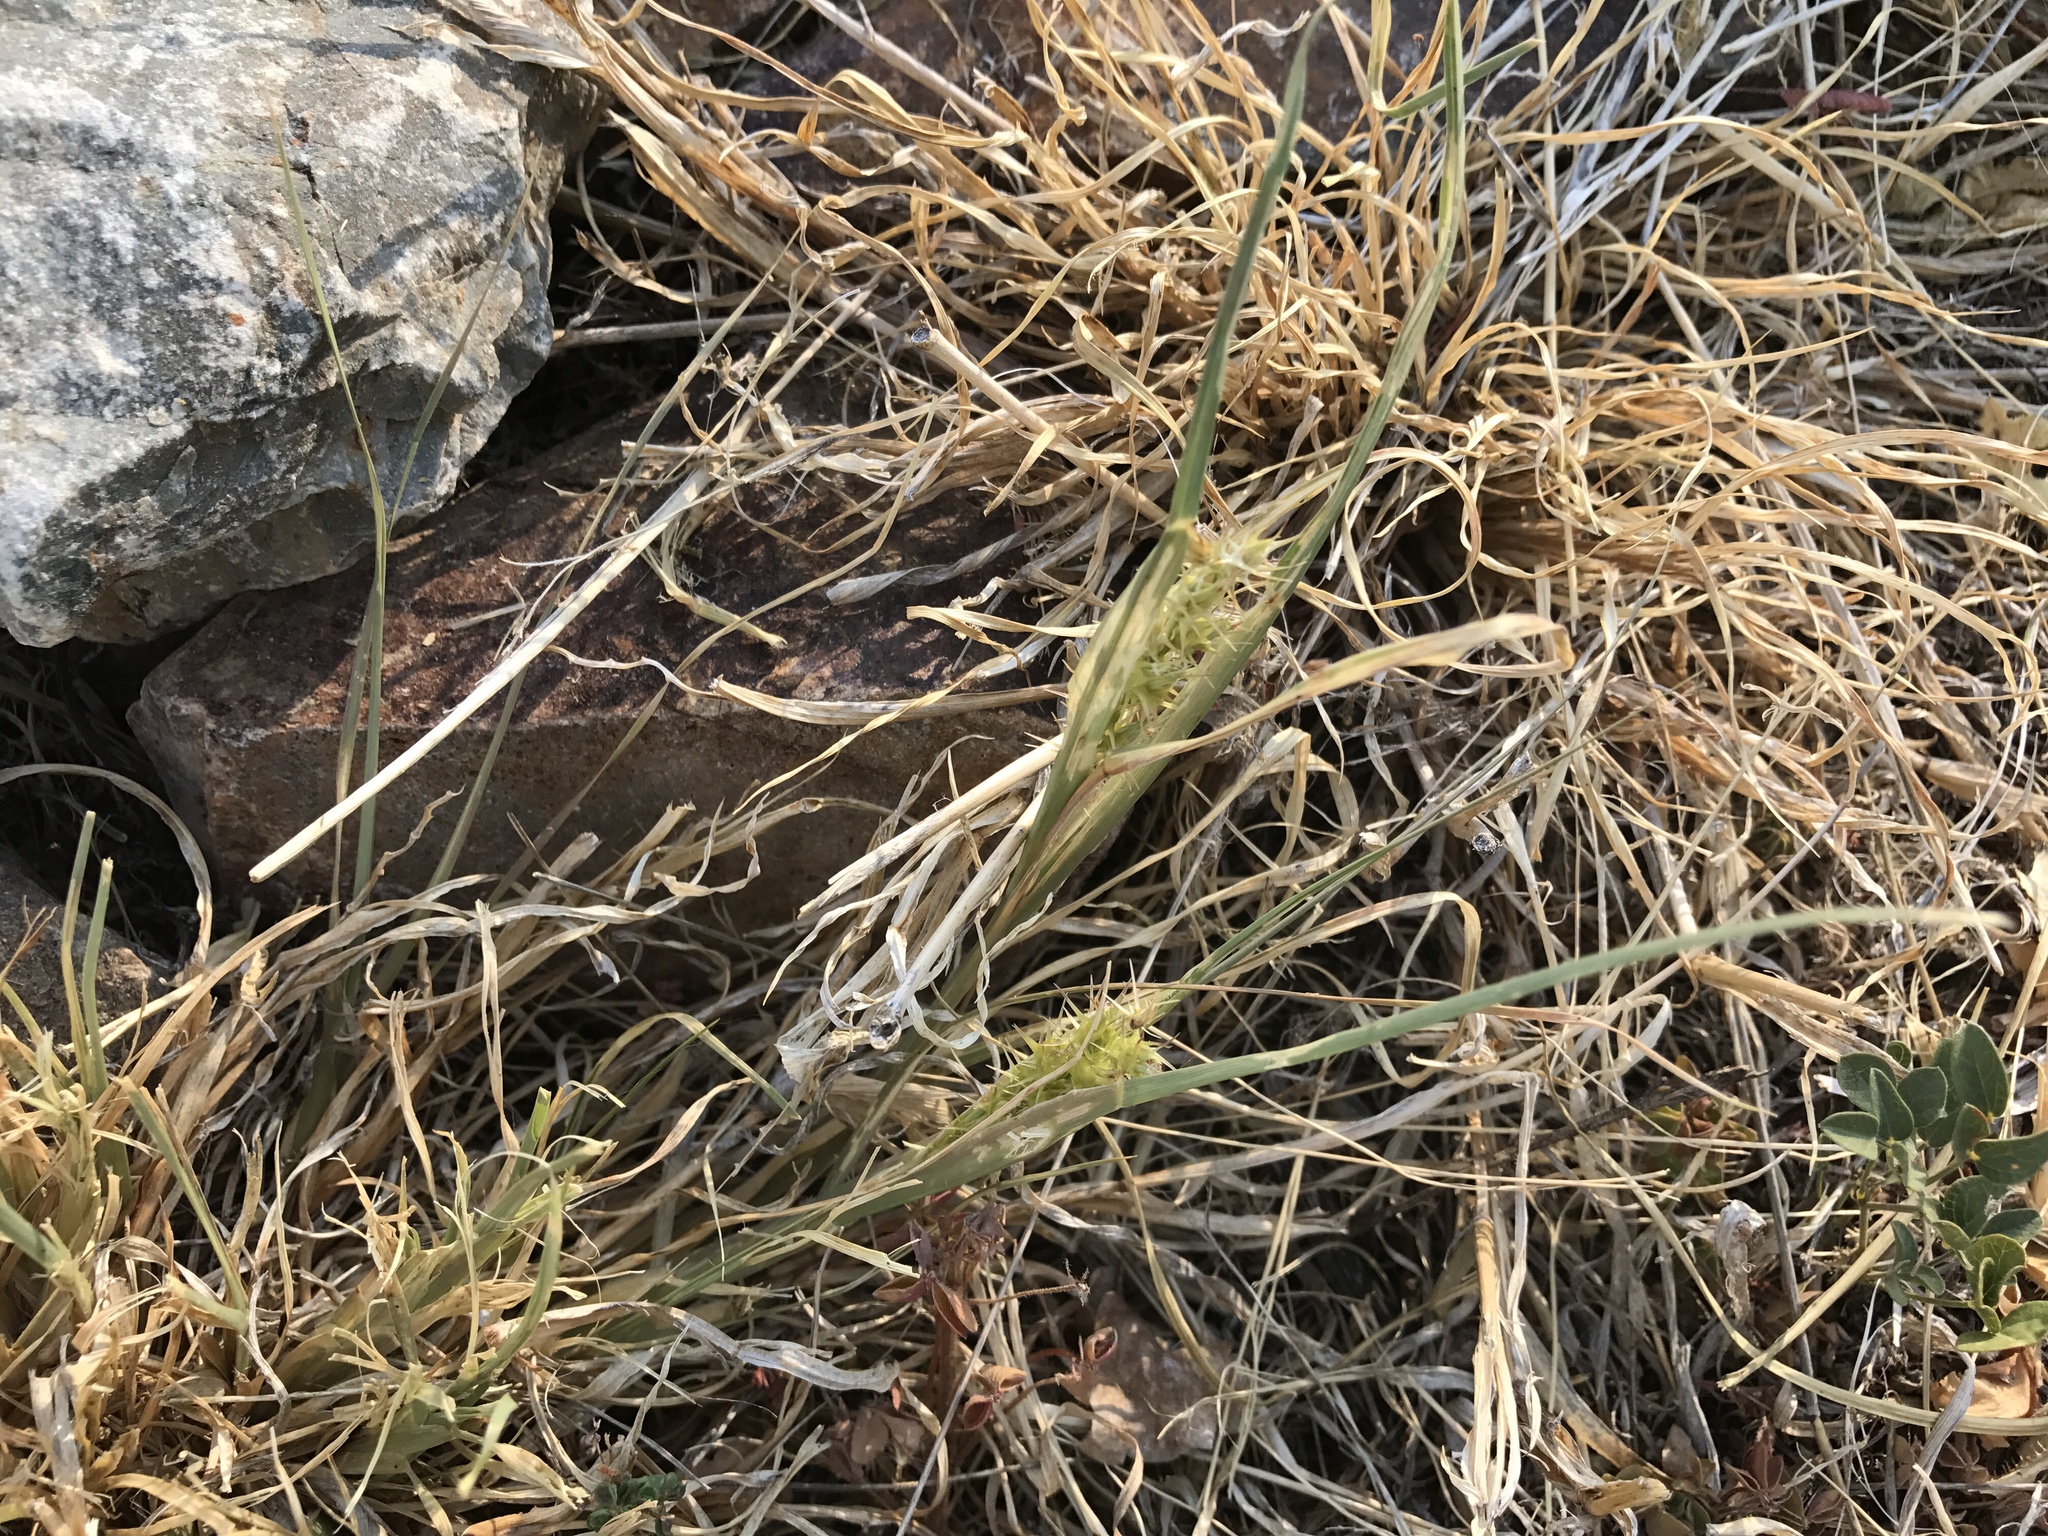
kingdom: Plantae
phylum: Tracheophyta
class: Liliopsida
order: Poales
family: Poaceae
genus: Cenchrus
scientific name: Cenchrus spinifex
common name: Coast sandbur
